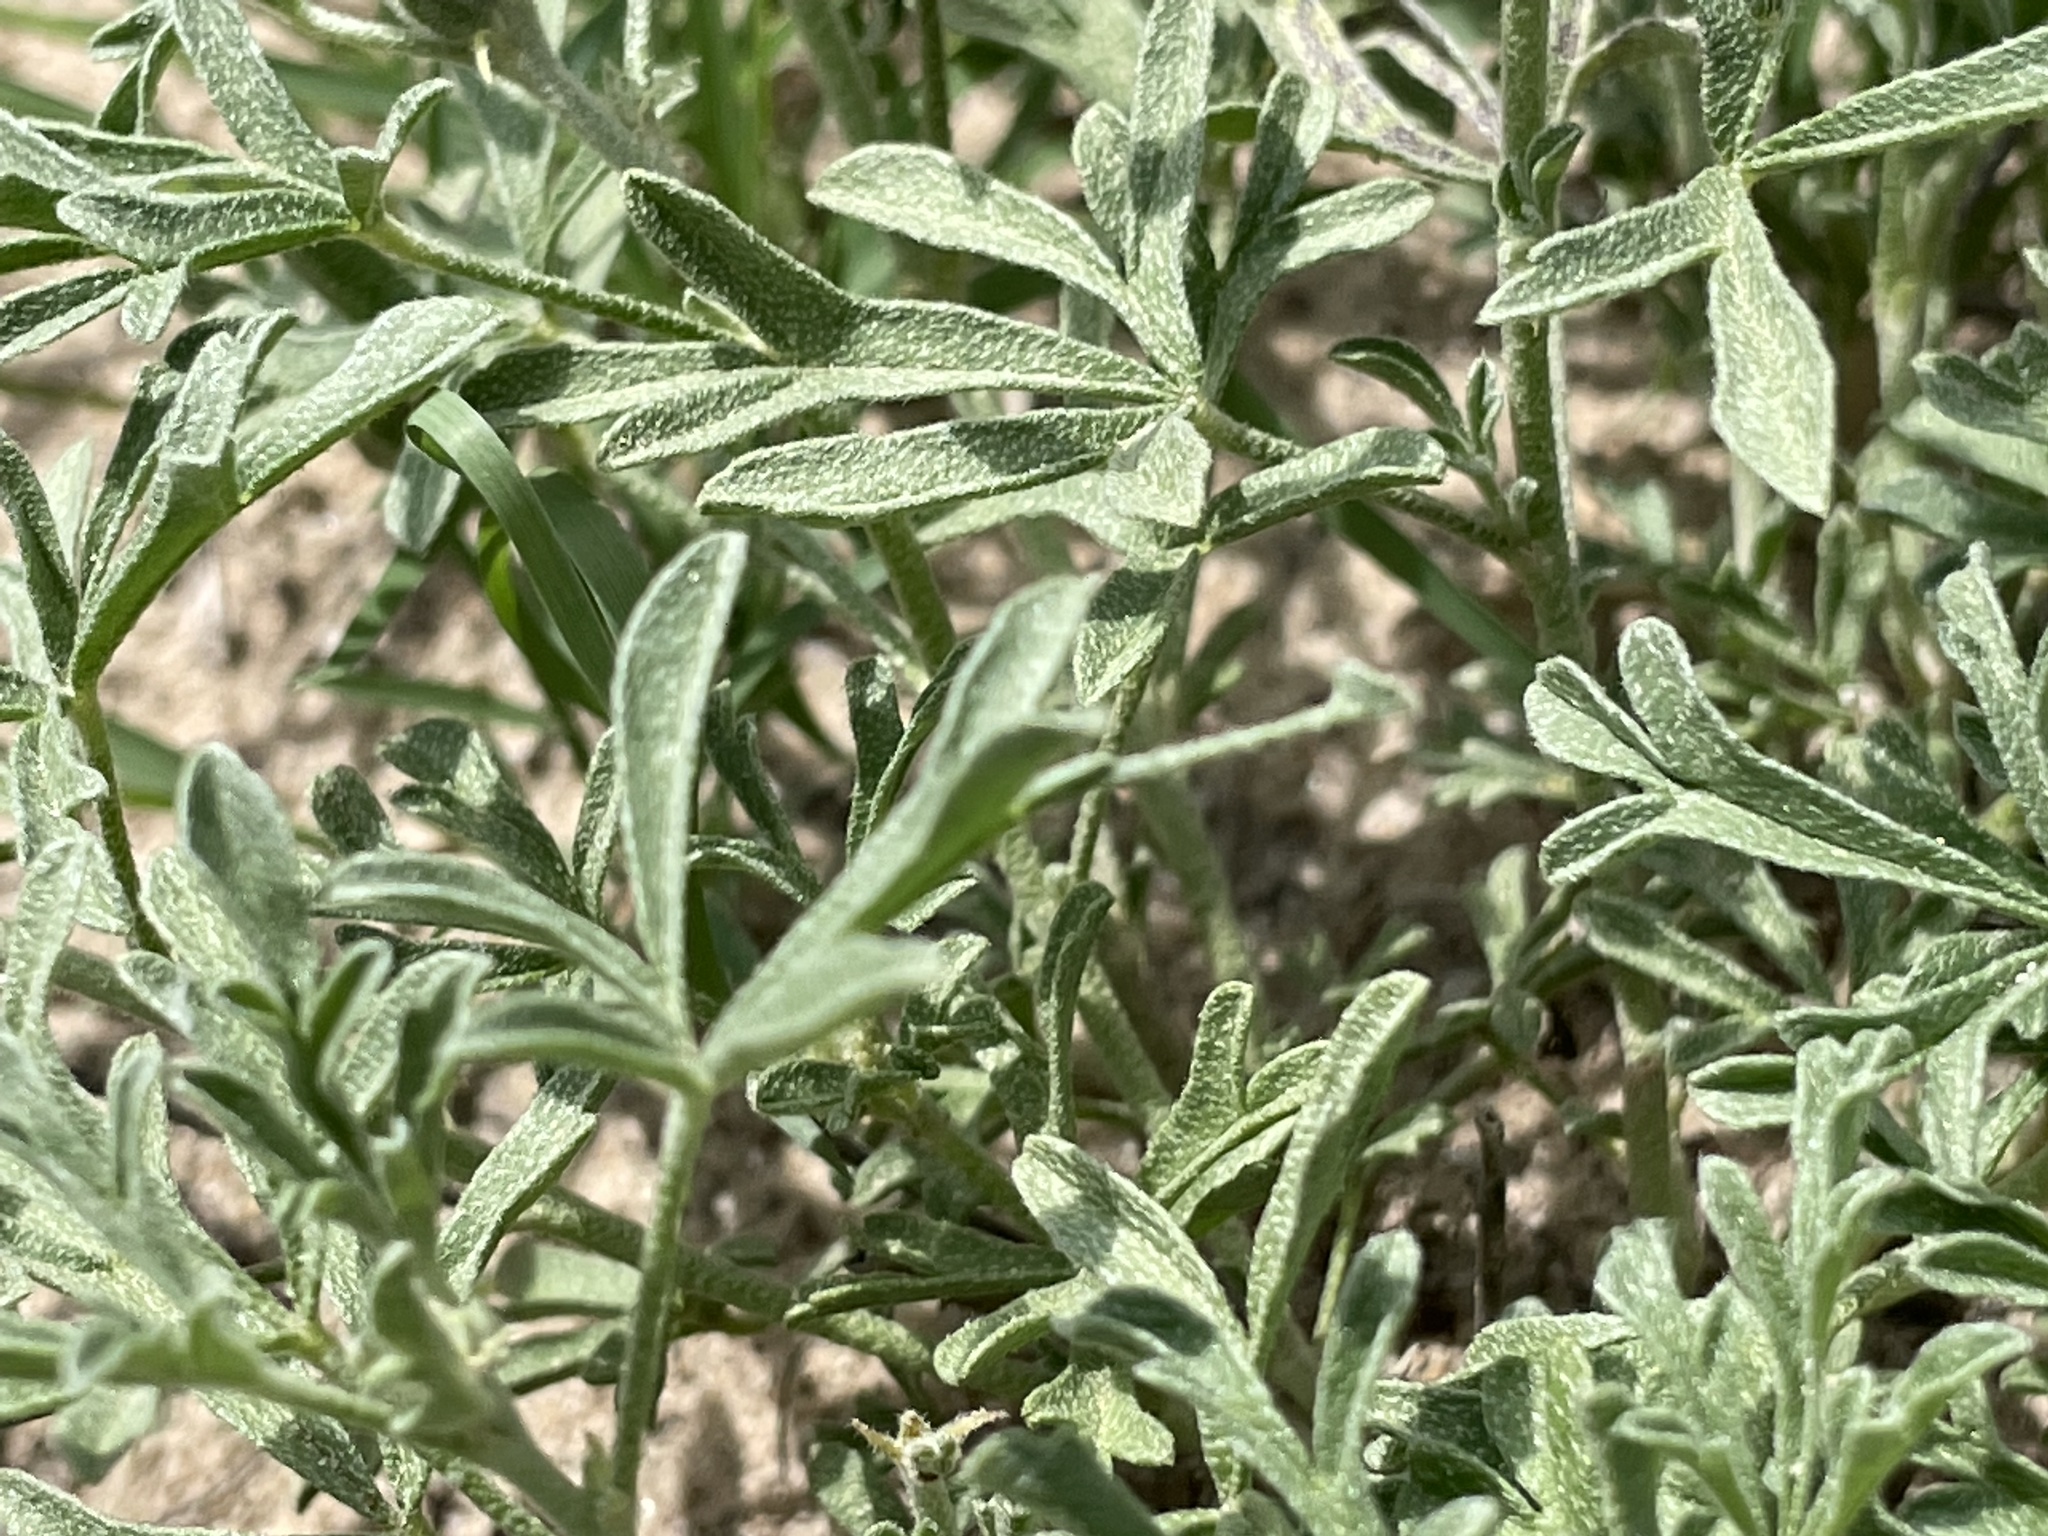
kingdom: Plantae
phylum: Tracheophyta
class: Magnoliopsida
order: Malvales
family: Malvaceae
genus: Sphaeralcea
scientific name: Sphaeralcea coccinea
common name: Moss-rose
